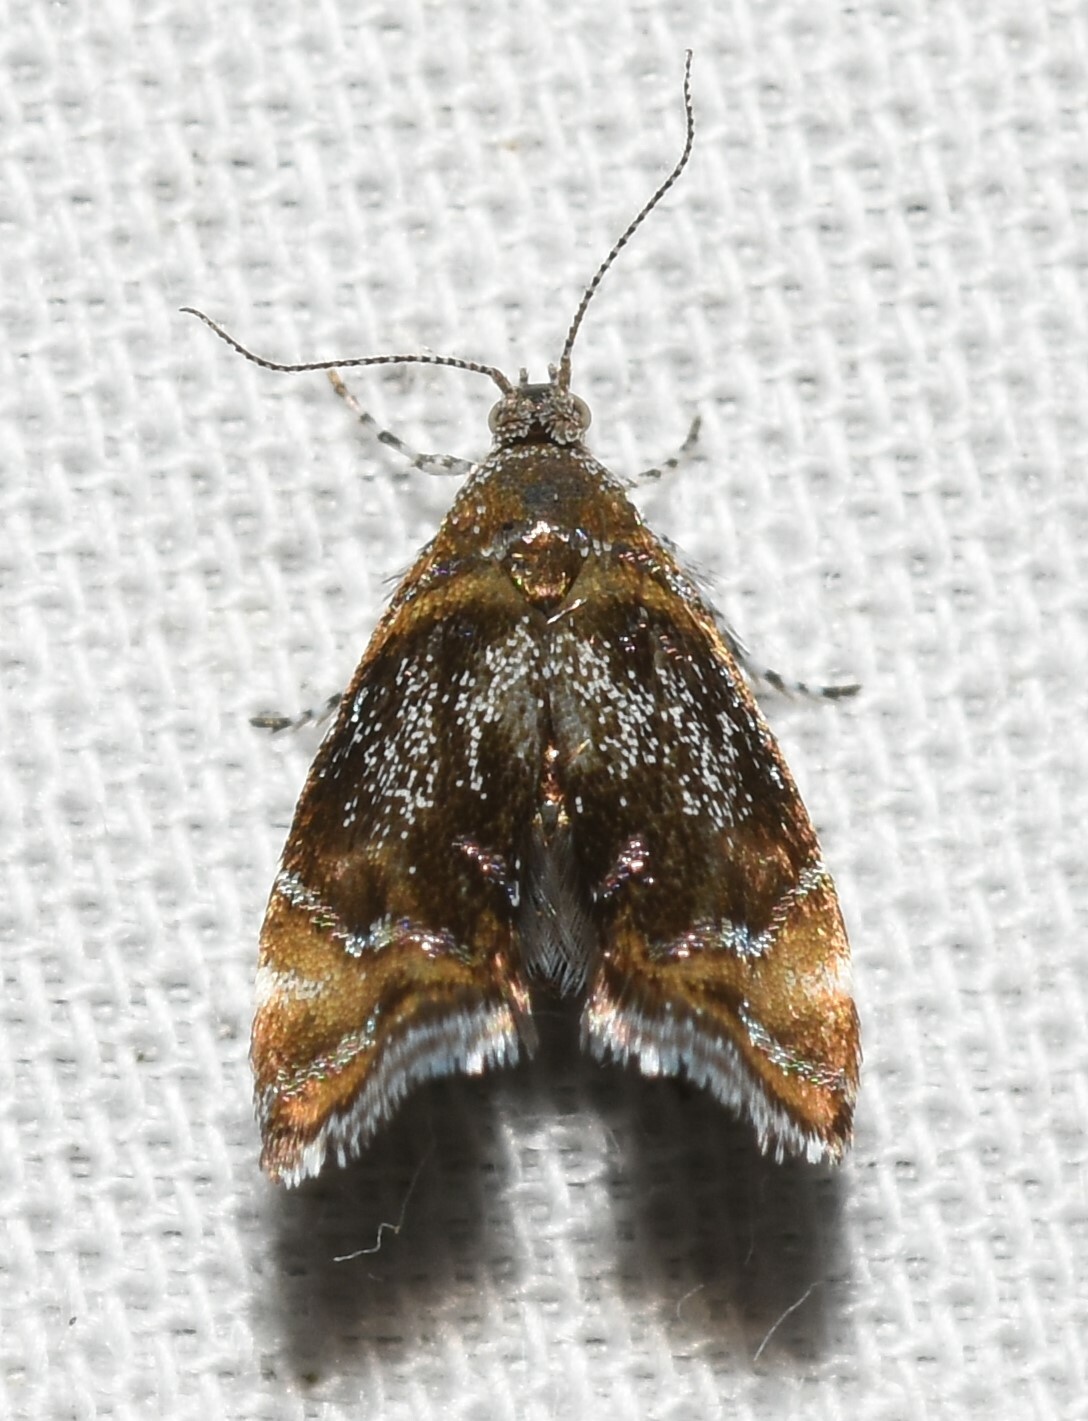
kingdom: Animalia
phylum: Arthropoda
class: Insecta
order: Lepidoptera
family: Choreutidae
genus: Prochoreutis
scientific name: Prochoreutis inflatella
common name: Skullcap skeletonizer moth
